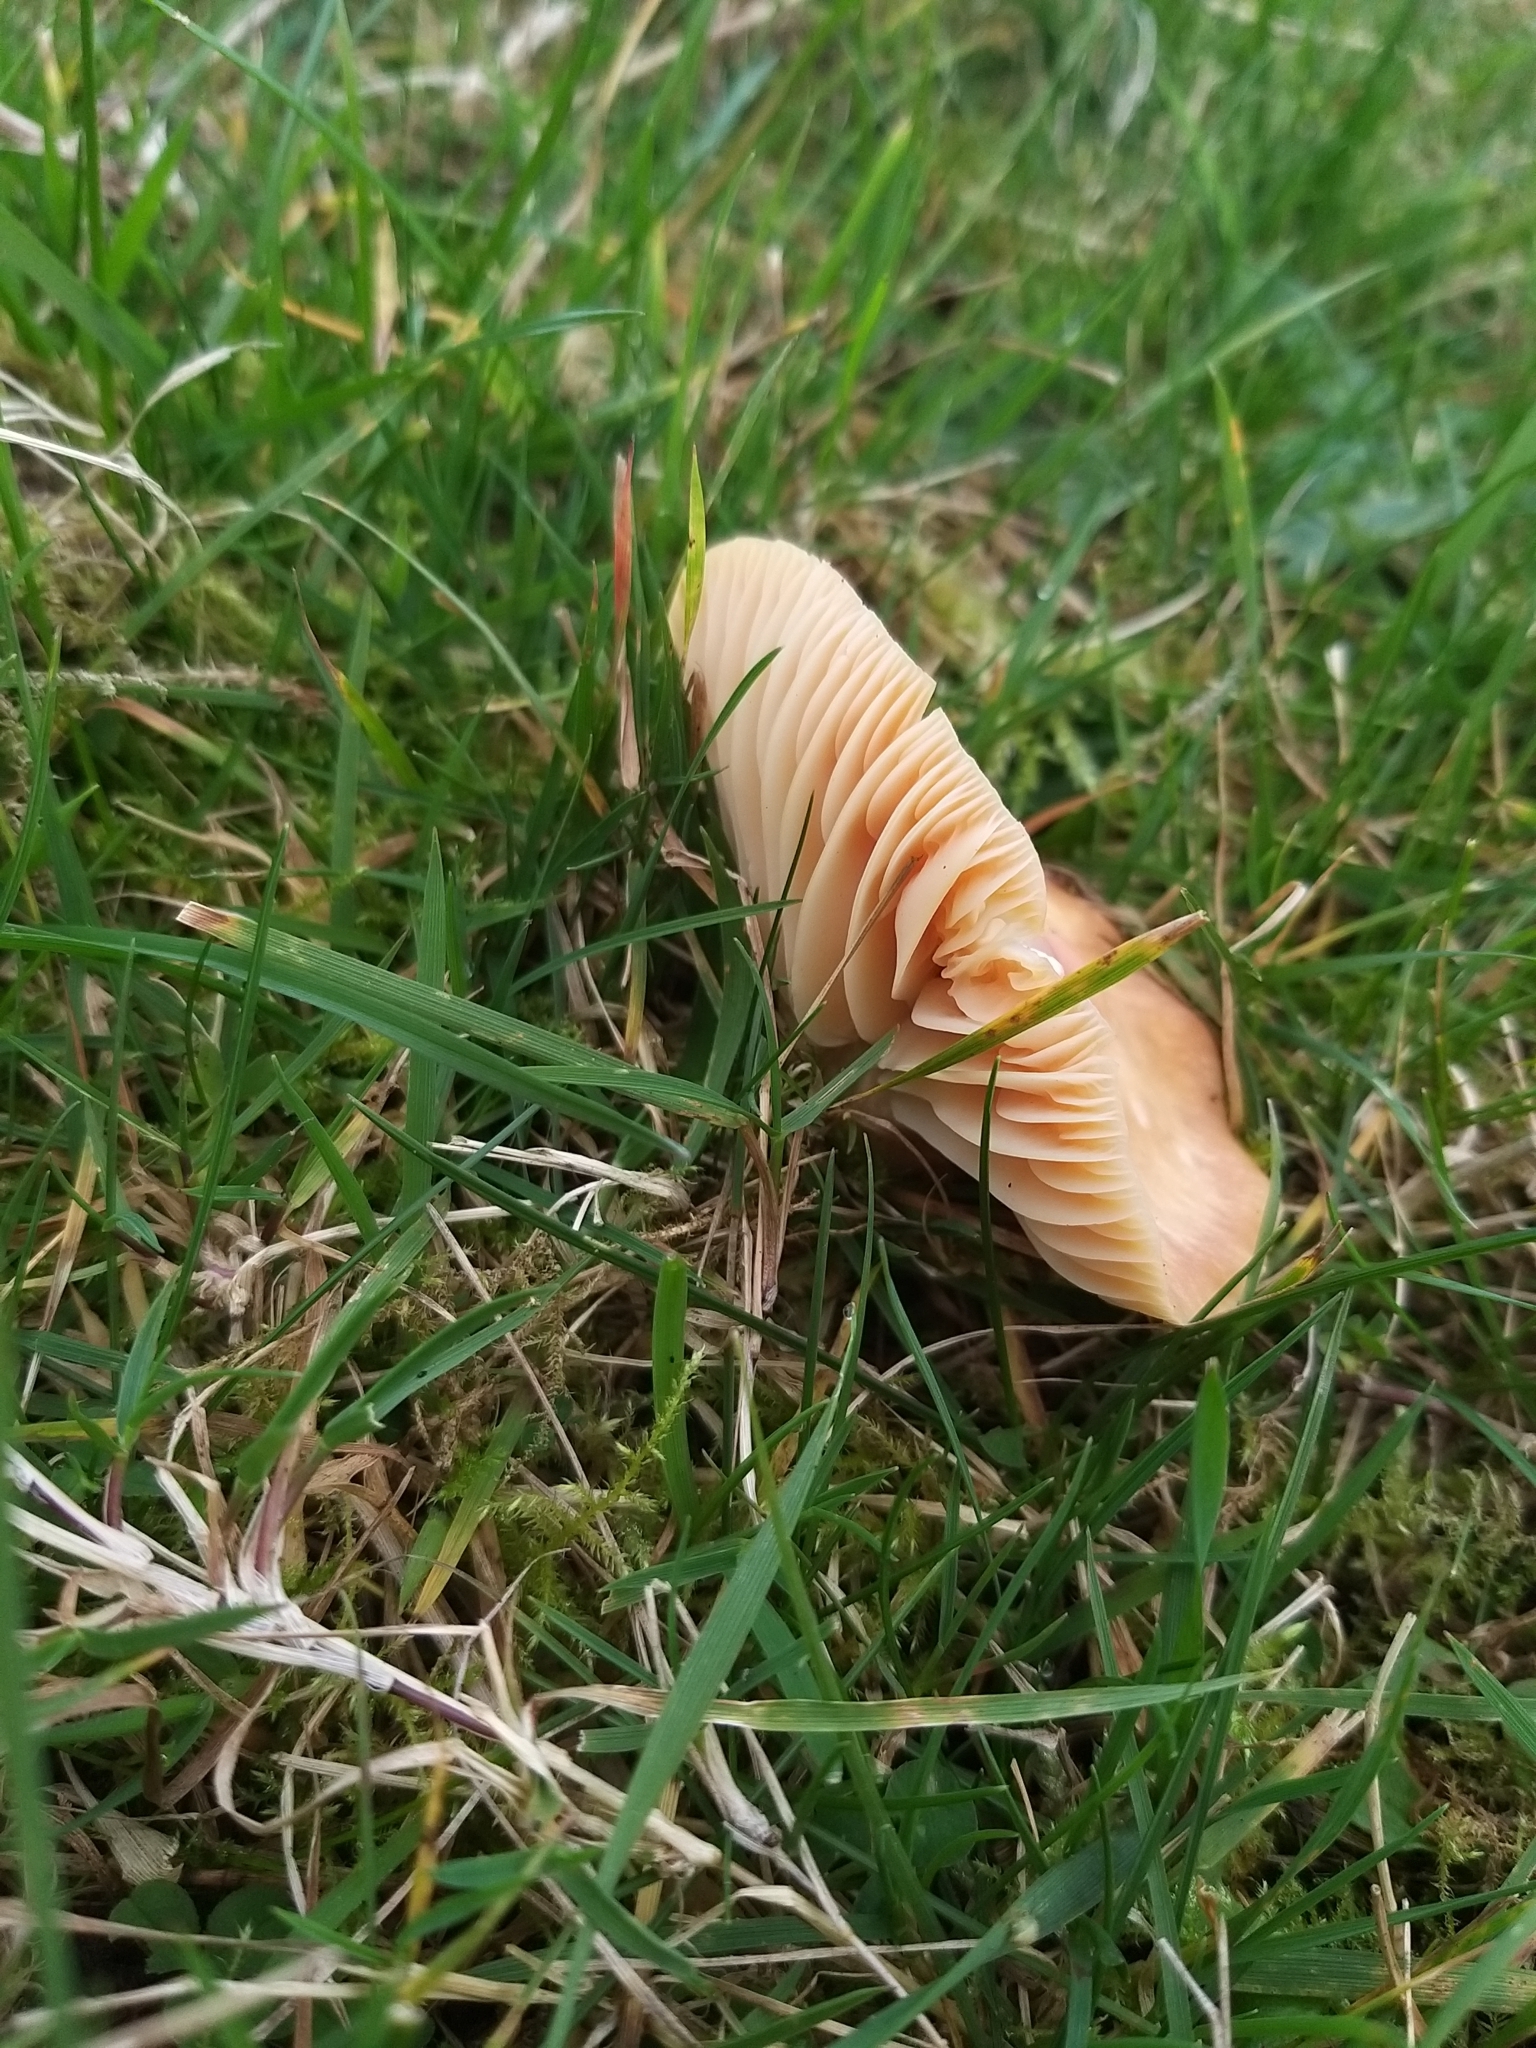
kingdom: Fungi
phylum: Basidiomycota
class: Agaricomycetes
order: Agaricales
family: Hygrophoraceae
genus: Cuphophyllus
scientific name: Cuphophyllus pratensis
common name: Meadow waxcap
